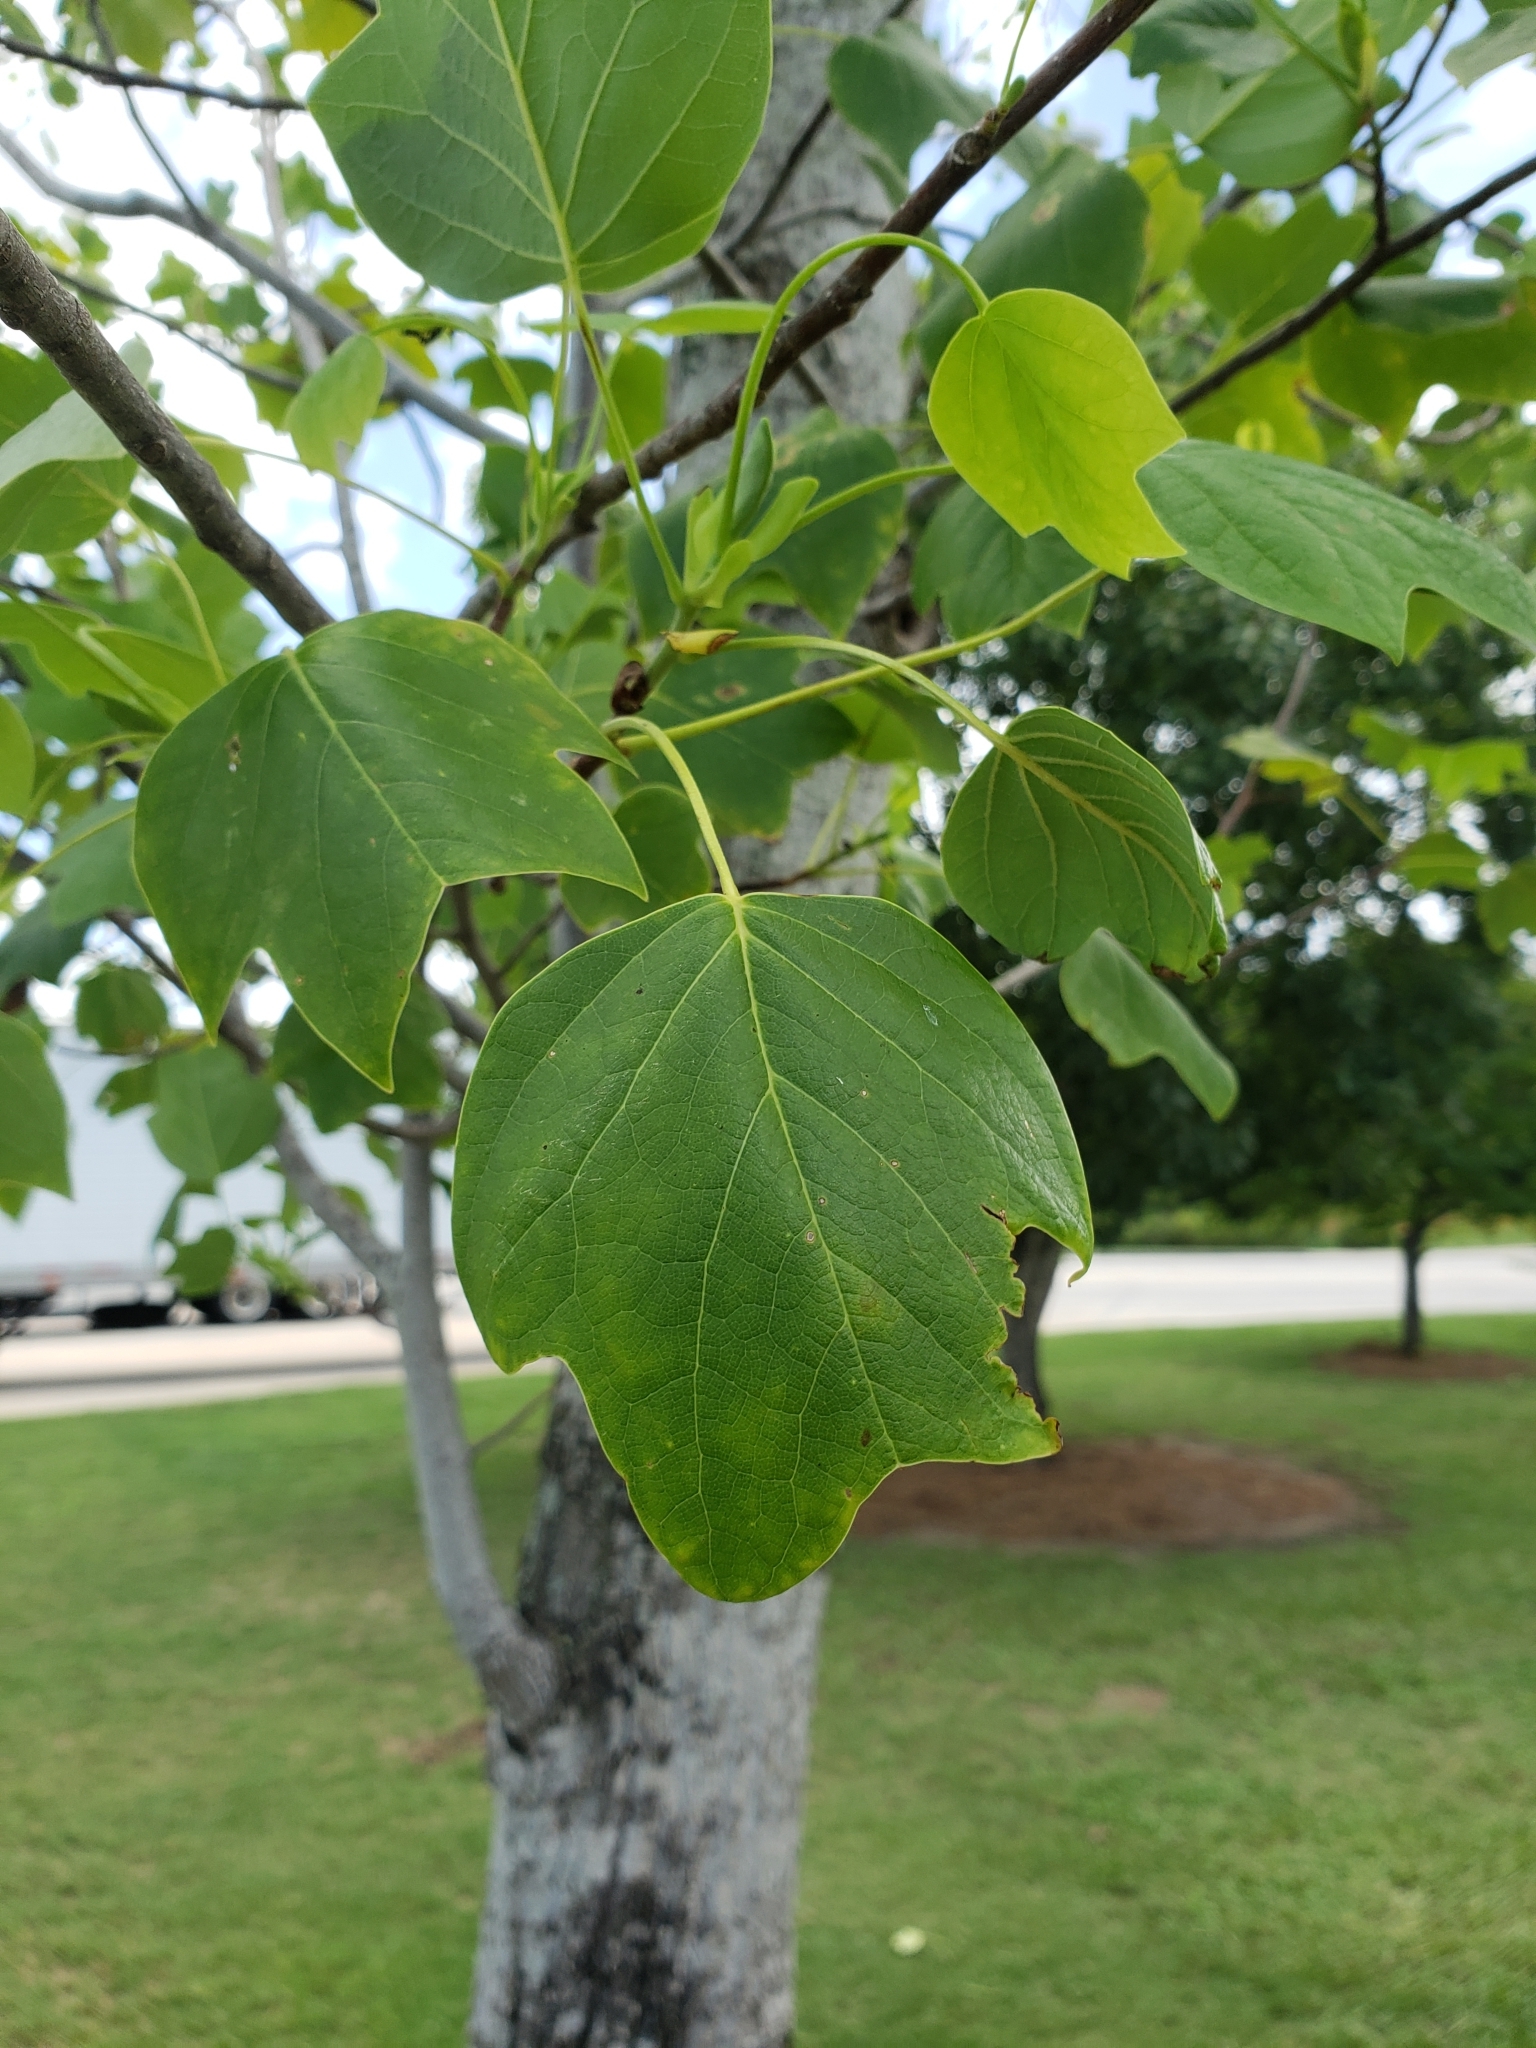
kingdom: Plantae
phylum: Tracheophyta
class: Magnoliopsida
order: Magnoliales
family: Magnoliaceae
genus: Liriodendron
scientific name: Liriodendron tulipifera
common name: Tulip tree
